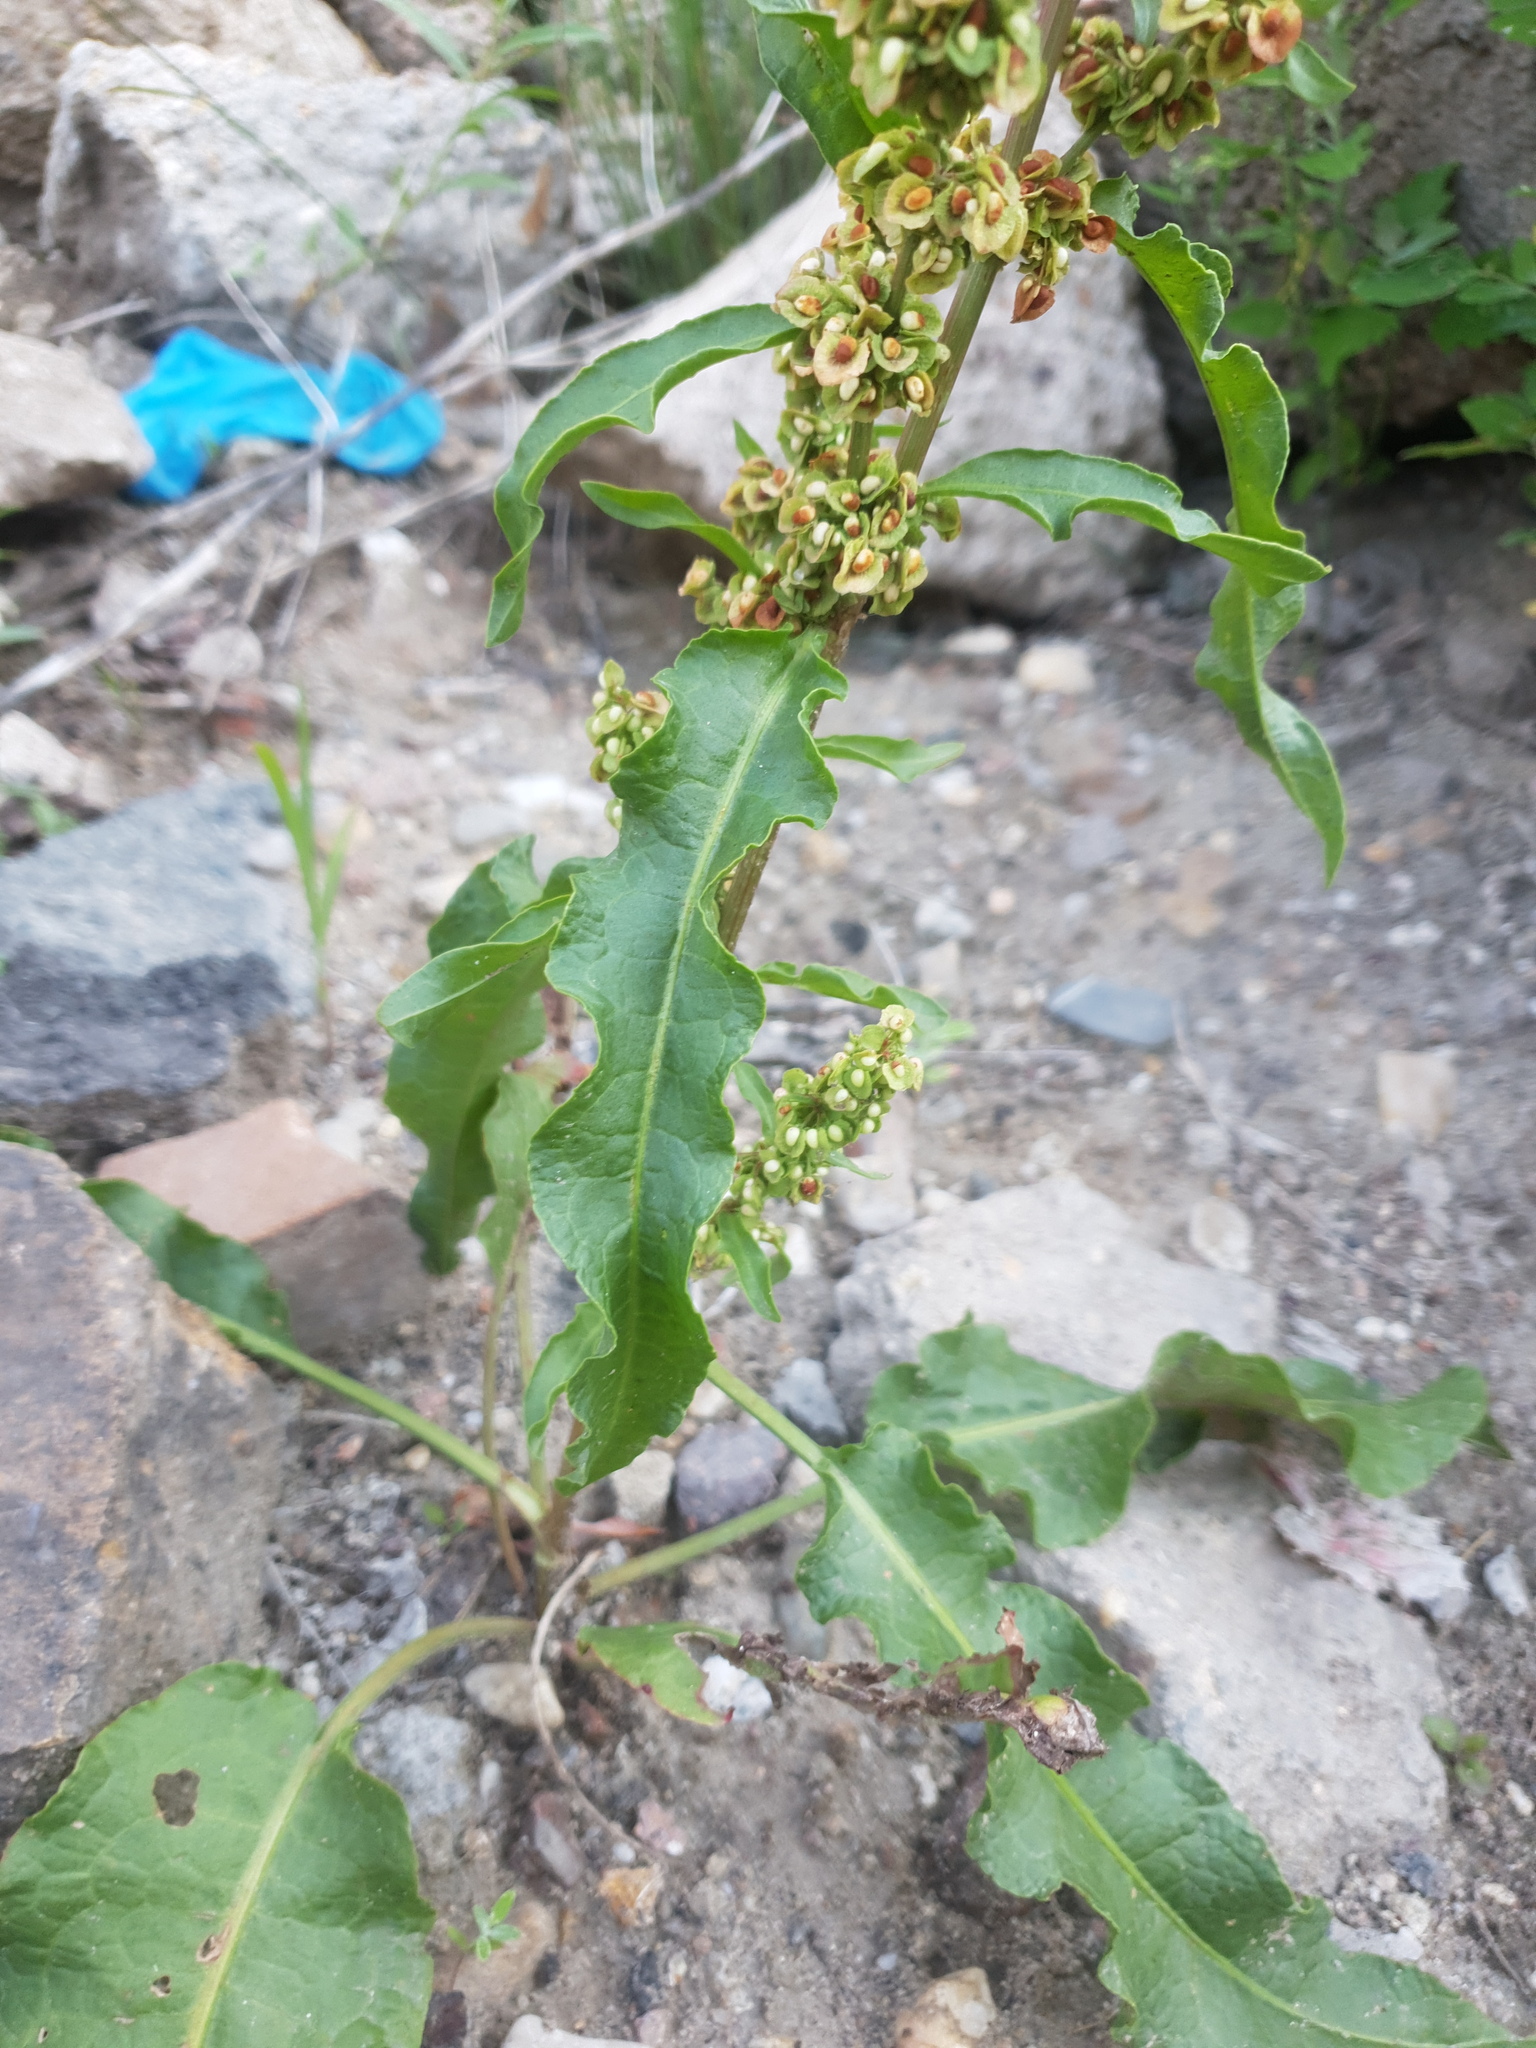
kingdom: Plantae
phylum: Tracheophyta
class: Magnoliopsida
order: Caryophyllales
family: Polygonaceae
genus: Rumex
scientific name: Rumex crispus
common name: Curled dock
